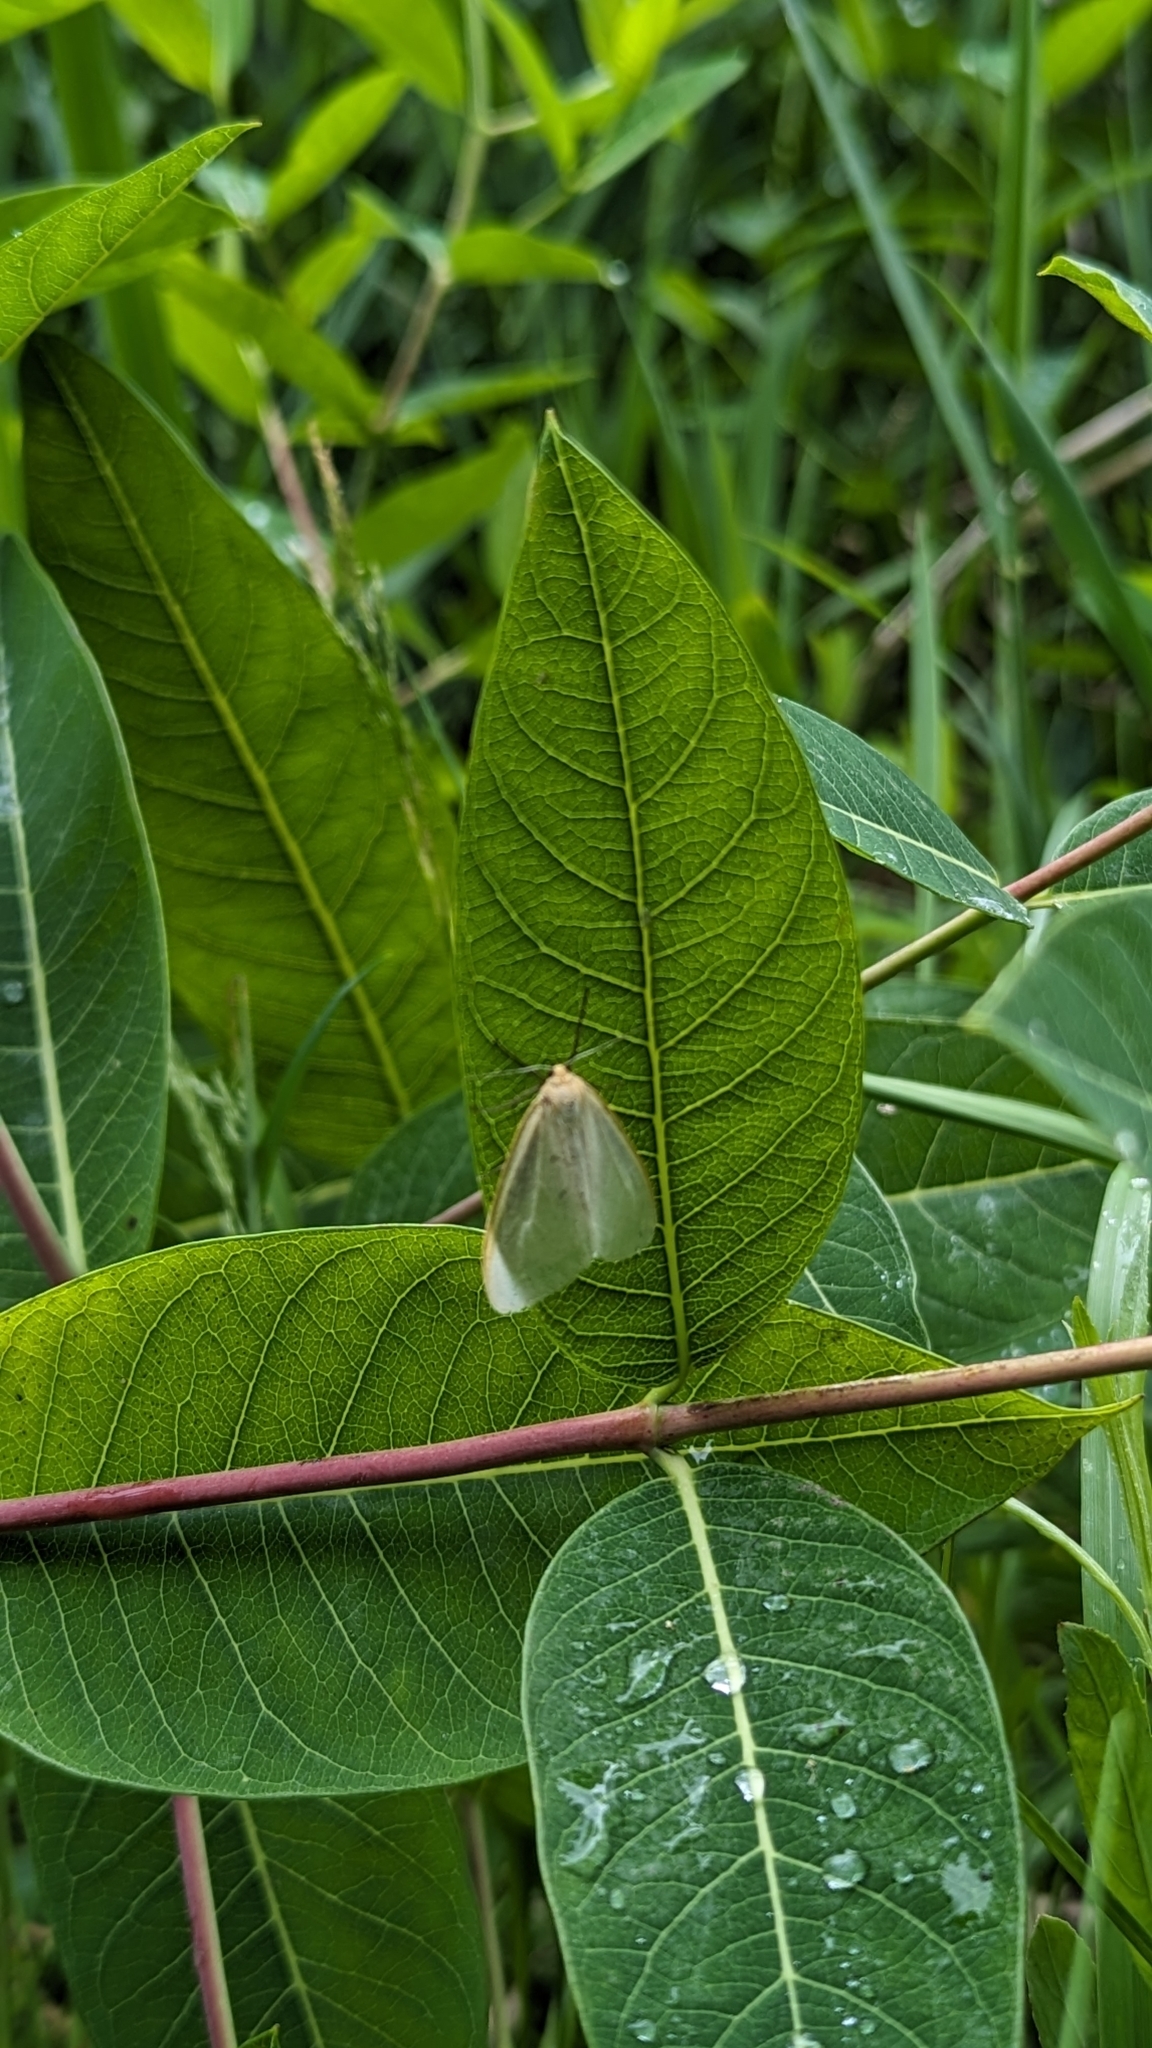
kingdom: Animalia
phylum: Arthropoda
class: Insecta
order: Lepidoptera
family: Erebidae
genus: Cycnia
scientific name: Cycnia tenera
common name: Delicate cycnia moth
